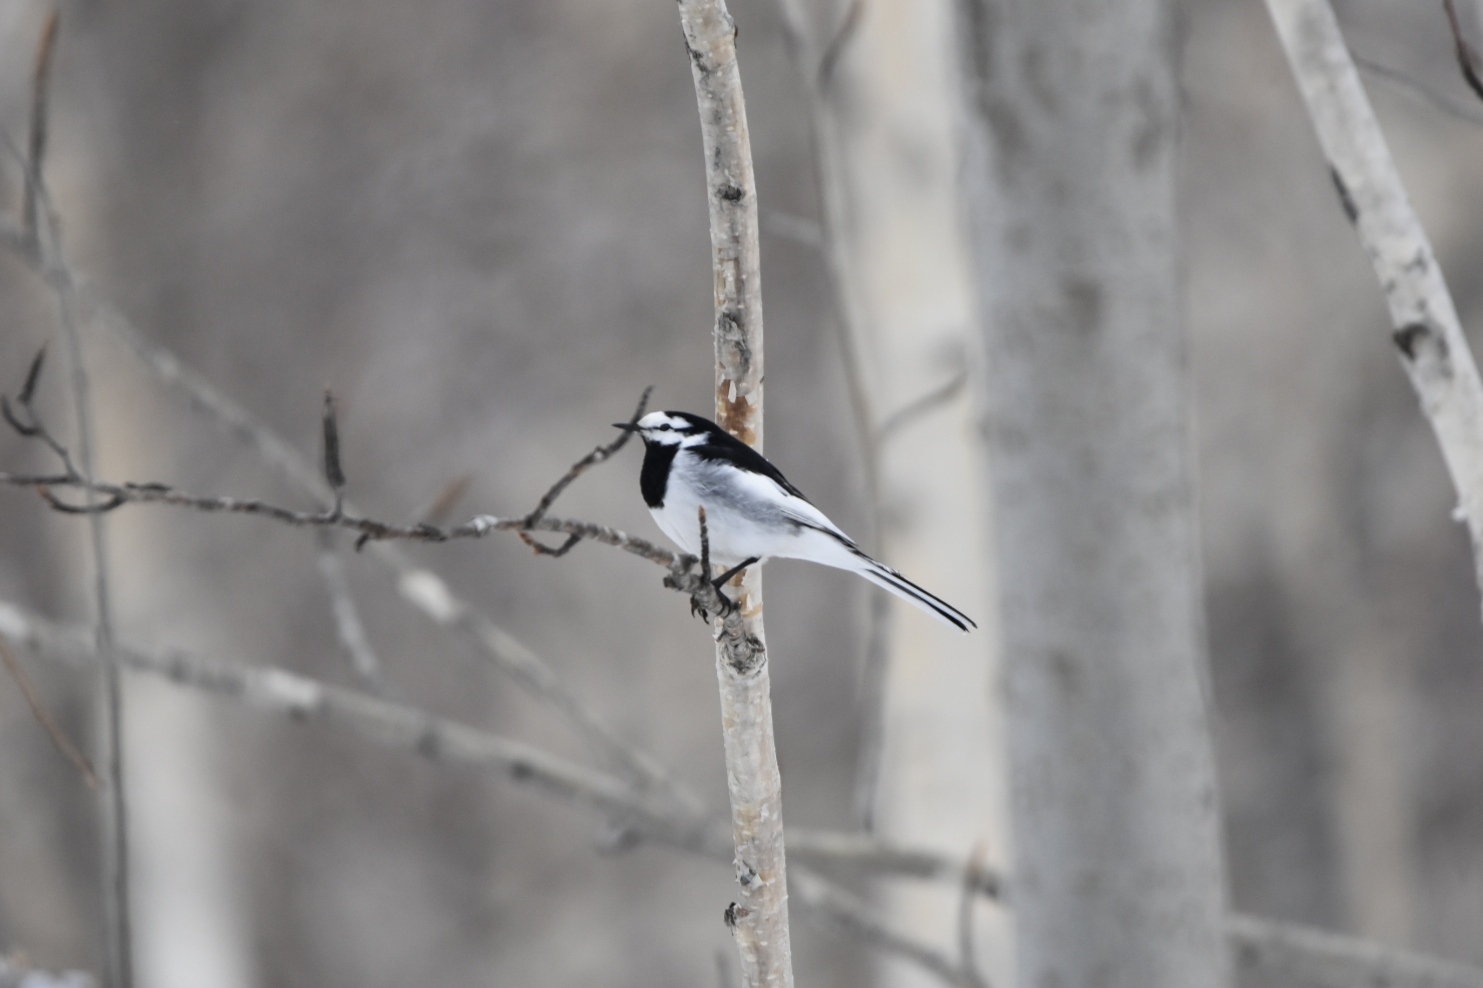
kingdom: Animalia
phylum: Chordata
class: Aves
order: Passeriformes
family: Motacillidae
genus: Motacilla
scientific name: Motacilla alba
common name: White wagtail
